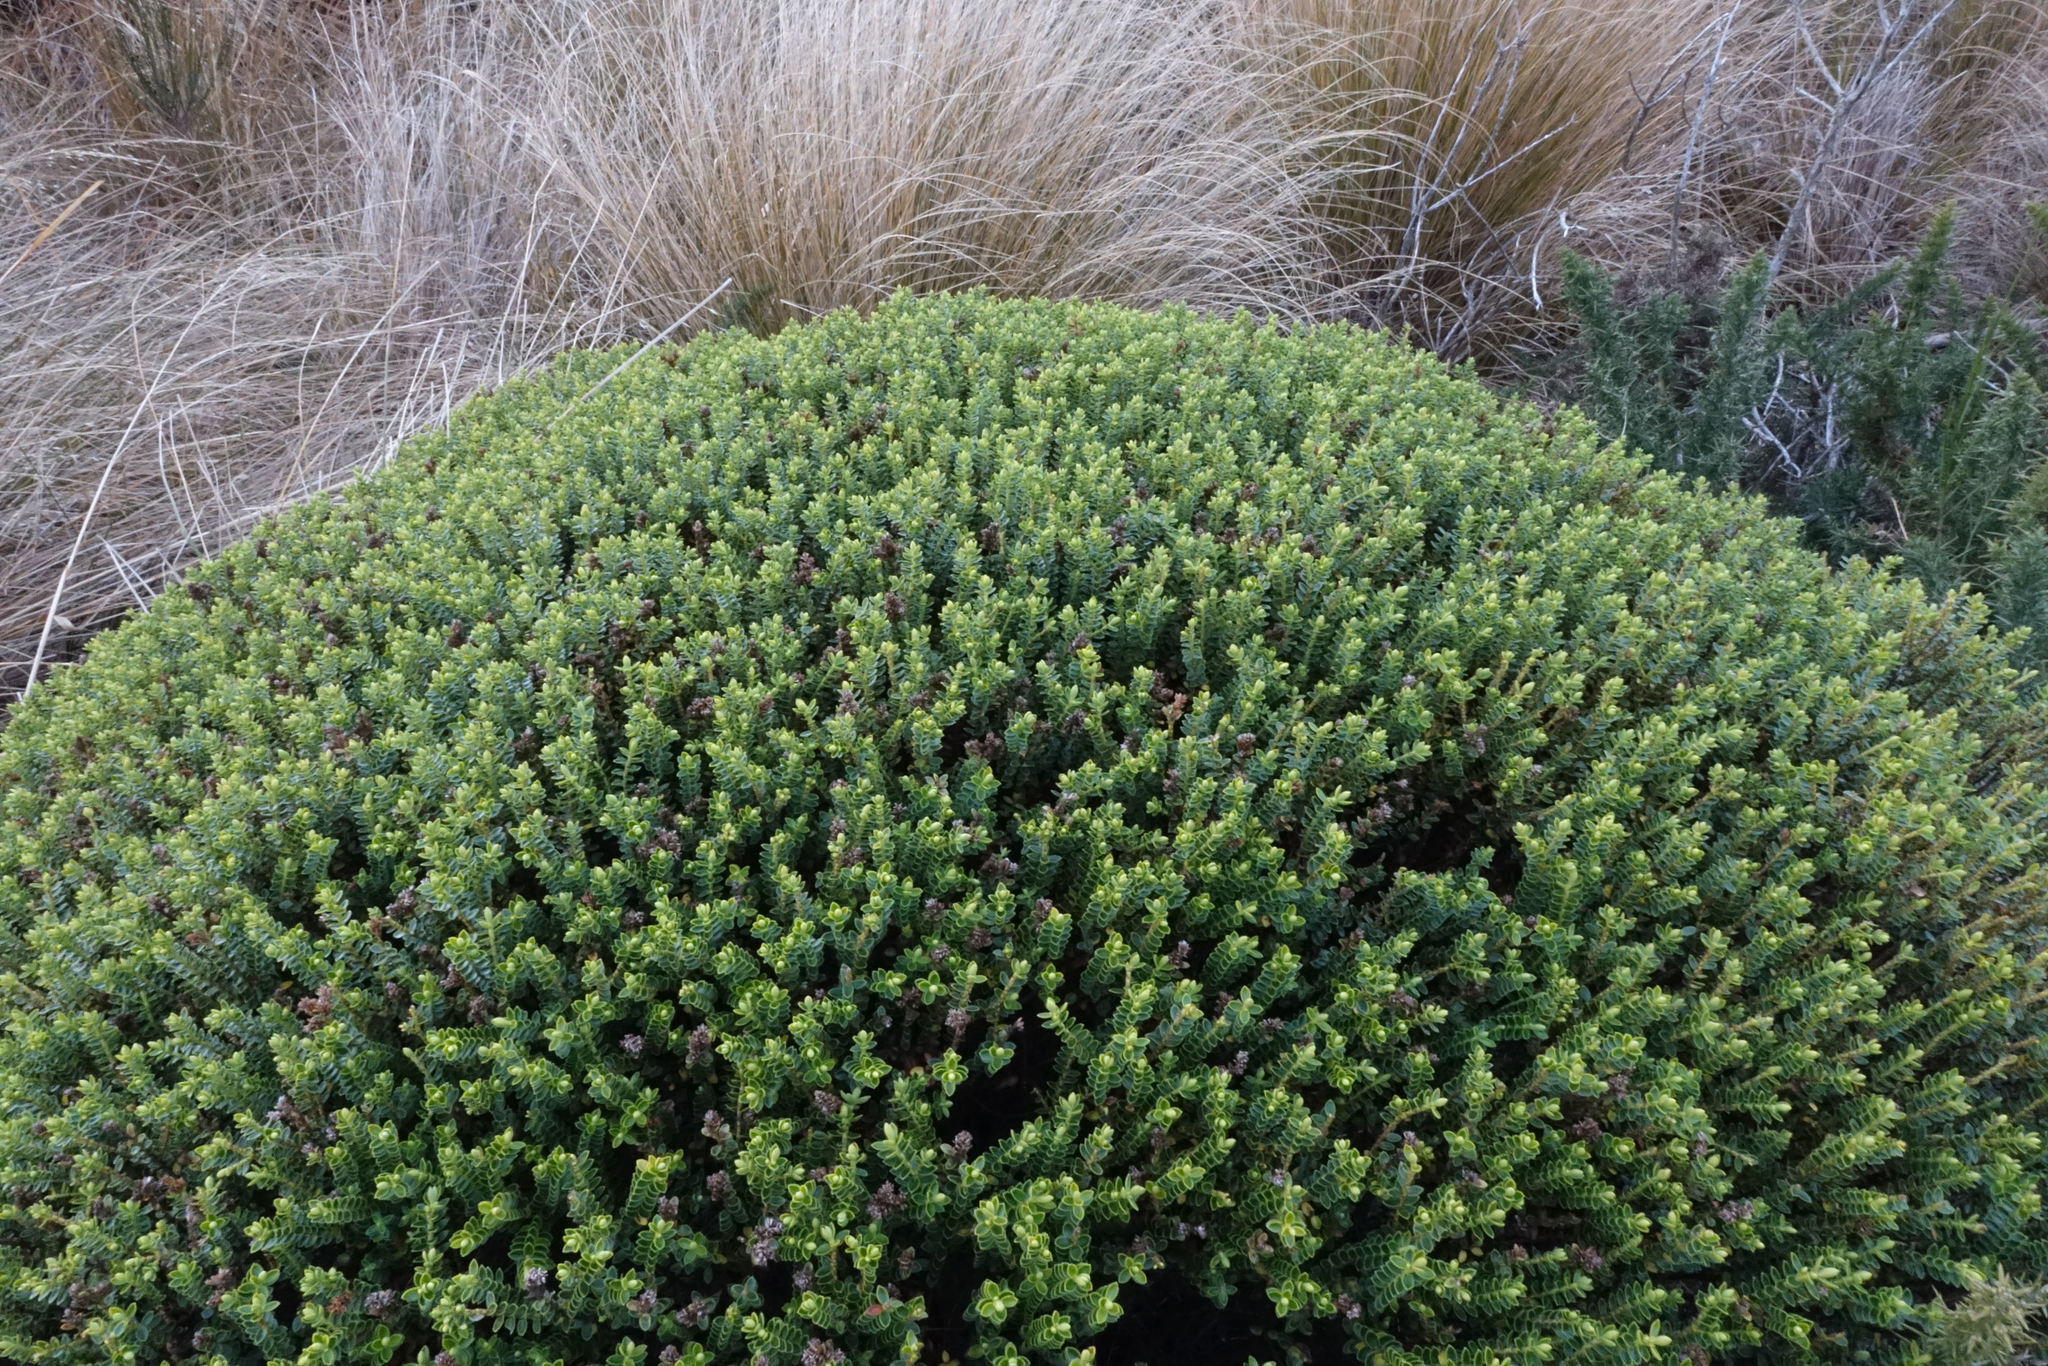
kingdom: Plantae
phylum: Tracheophyta
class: Magnoliopsida
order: Lamiales
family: Plantaginaceae
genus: Veronica
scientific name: Veronica odora
